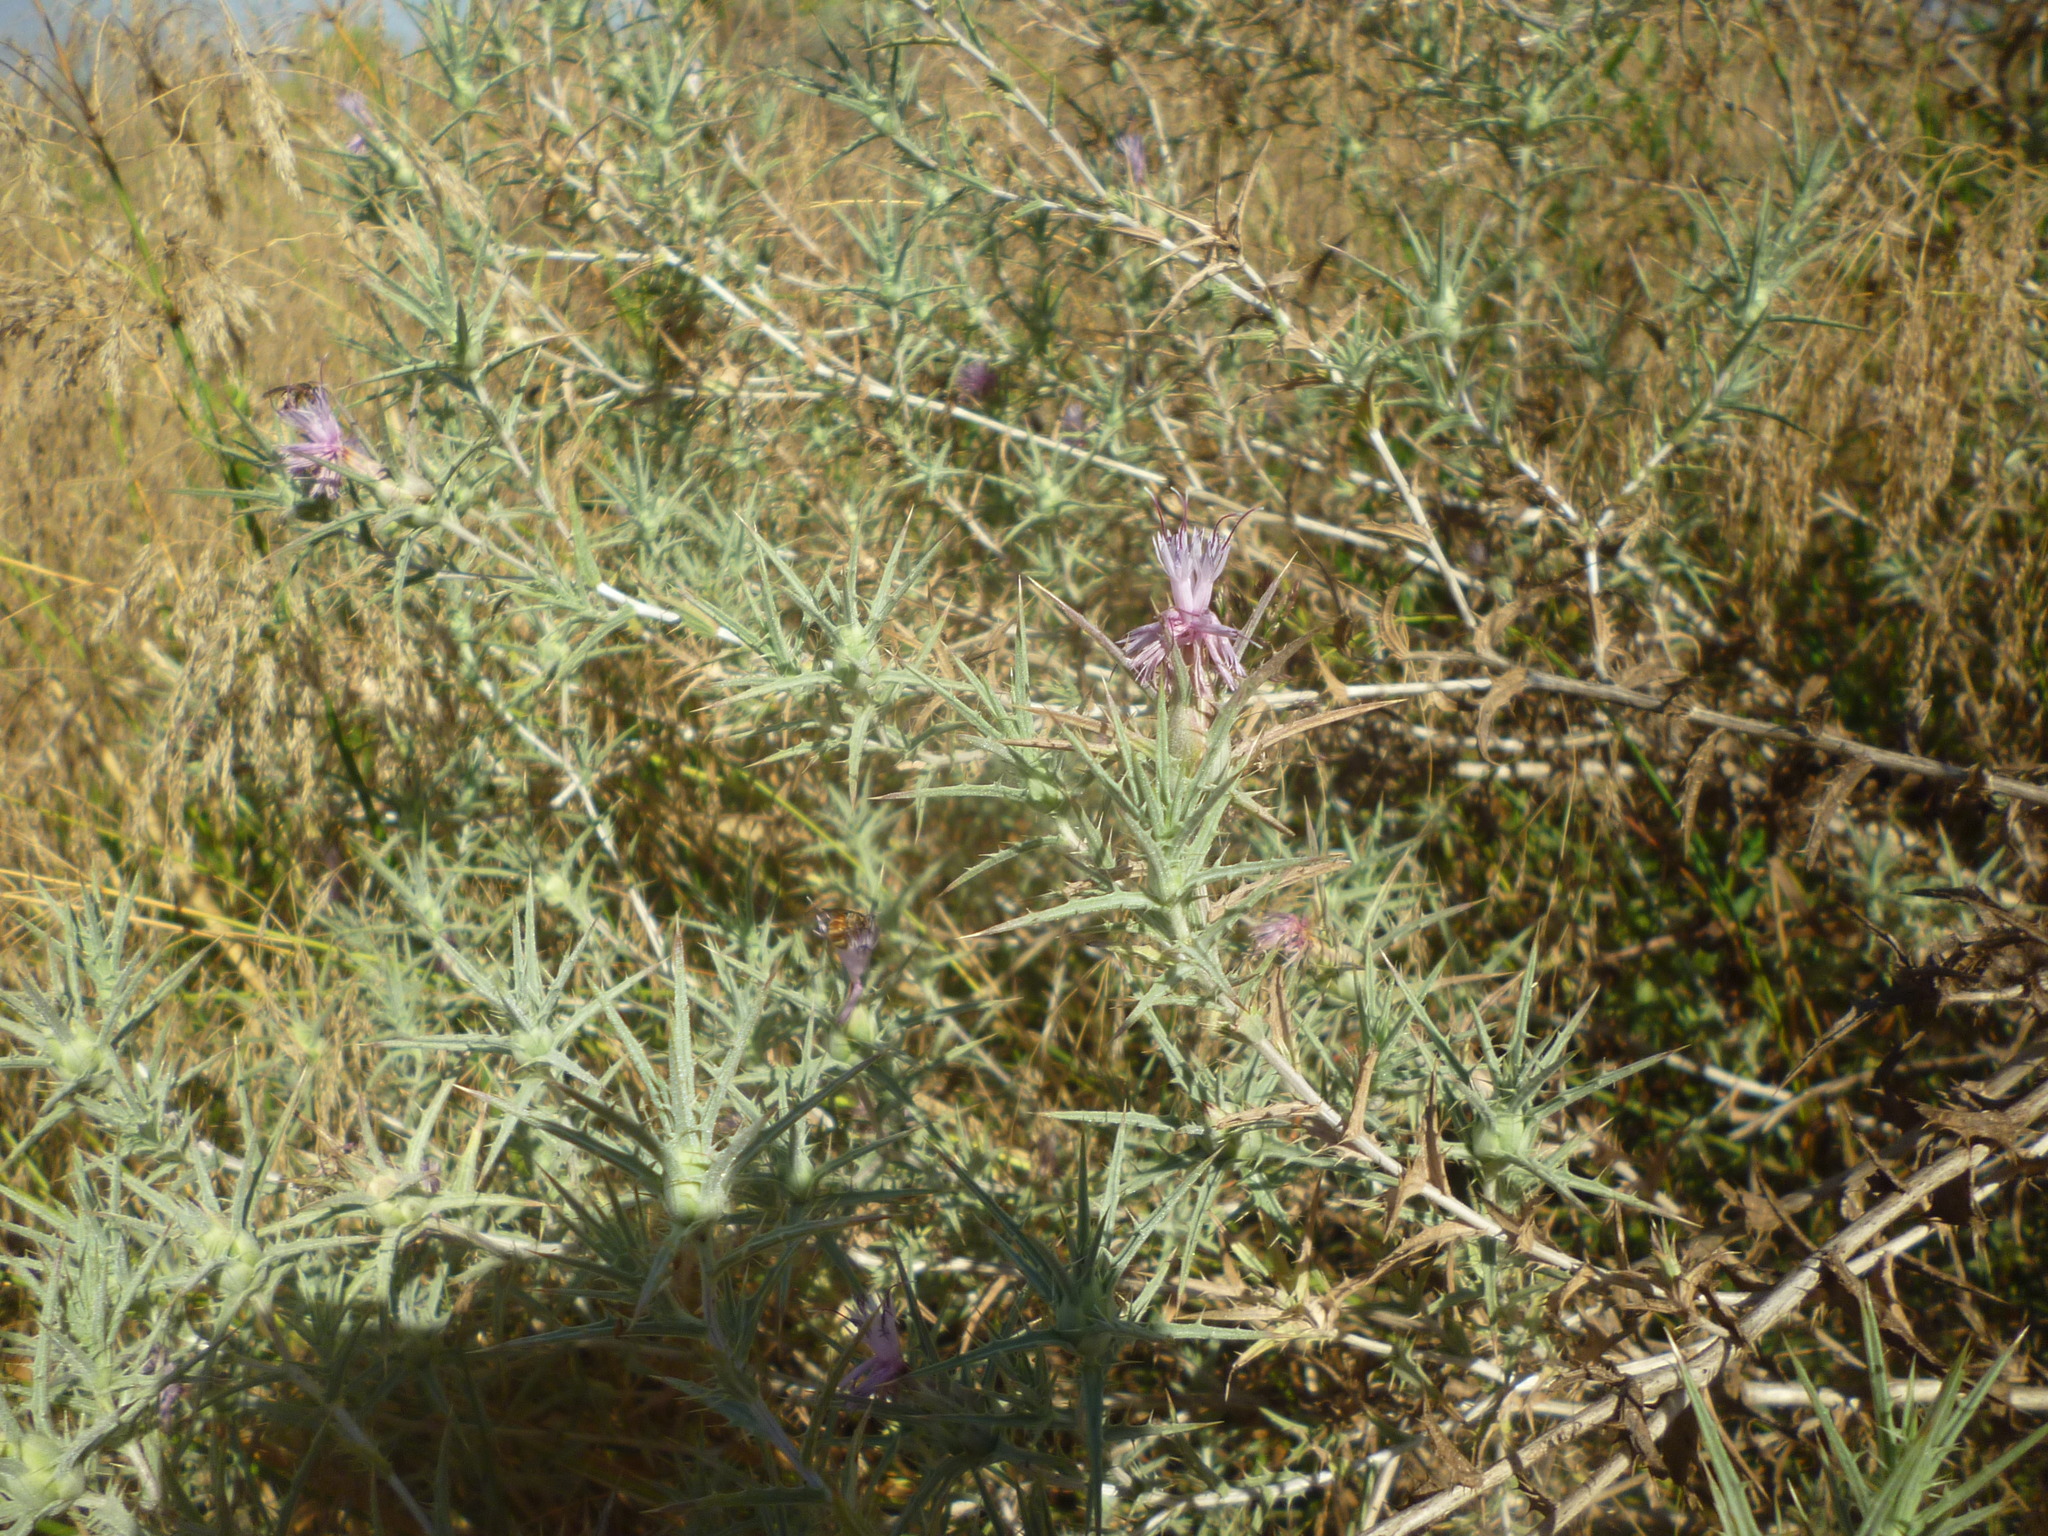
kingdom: Plantae
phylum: Tracheophyta
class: Magnoliopsida
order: Asterales
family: Asteraceae
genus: Carthamus
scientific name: Carthamus tenuis
